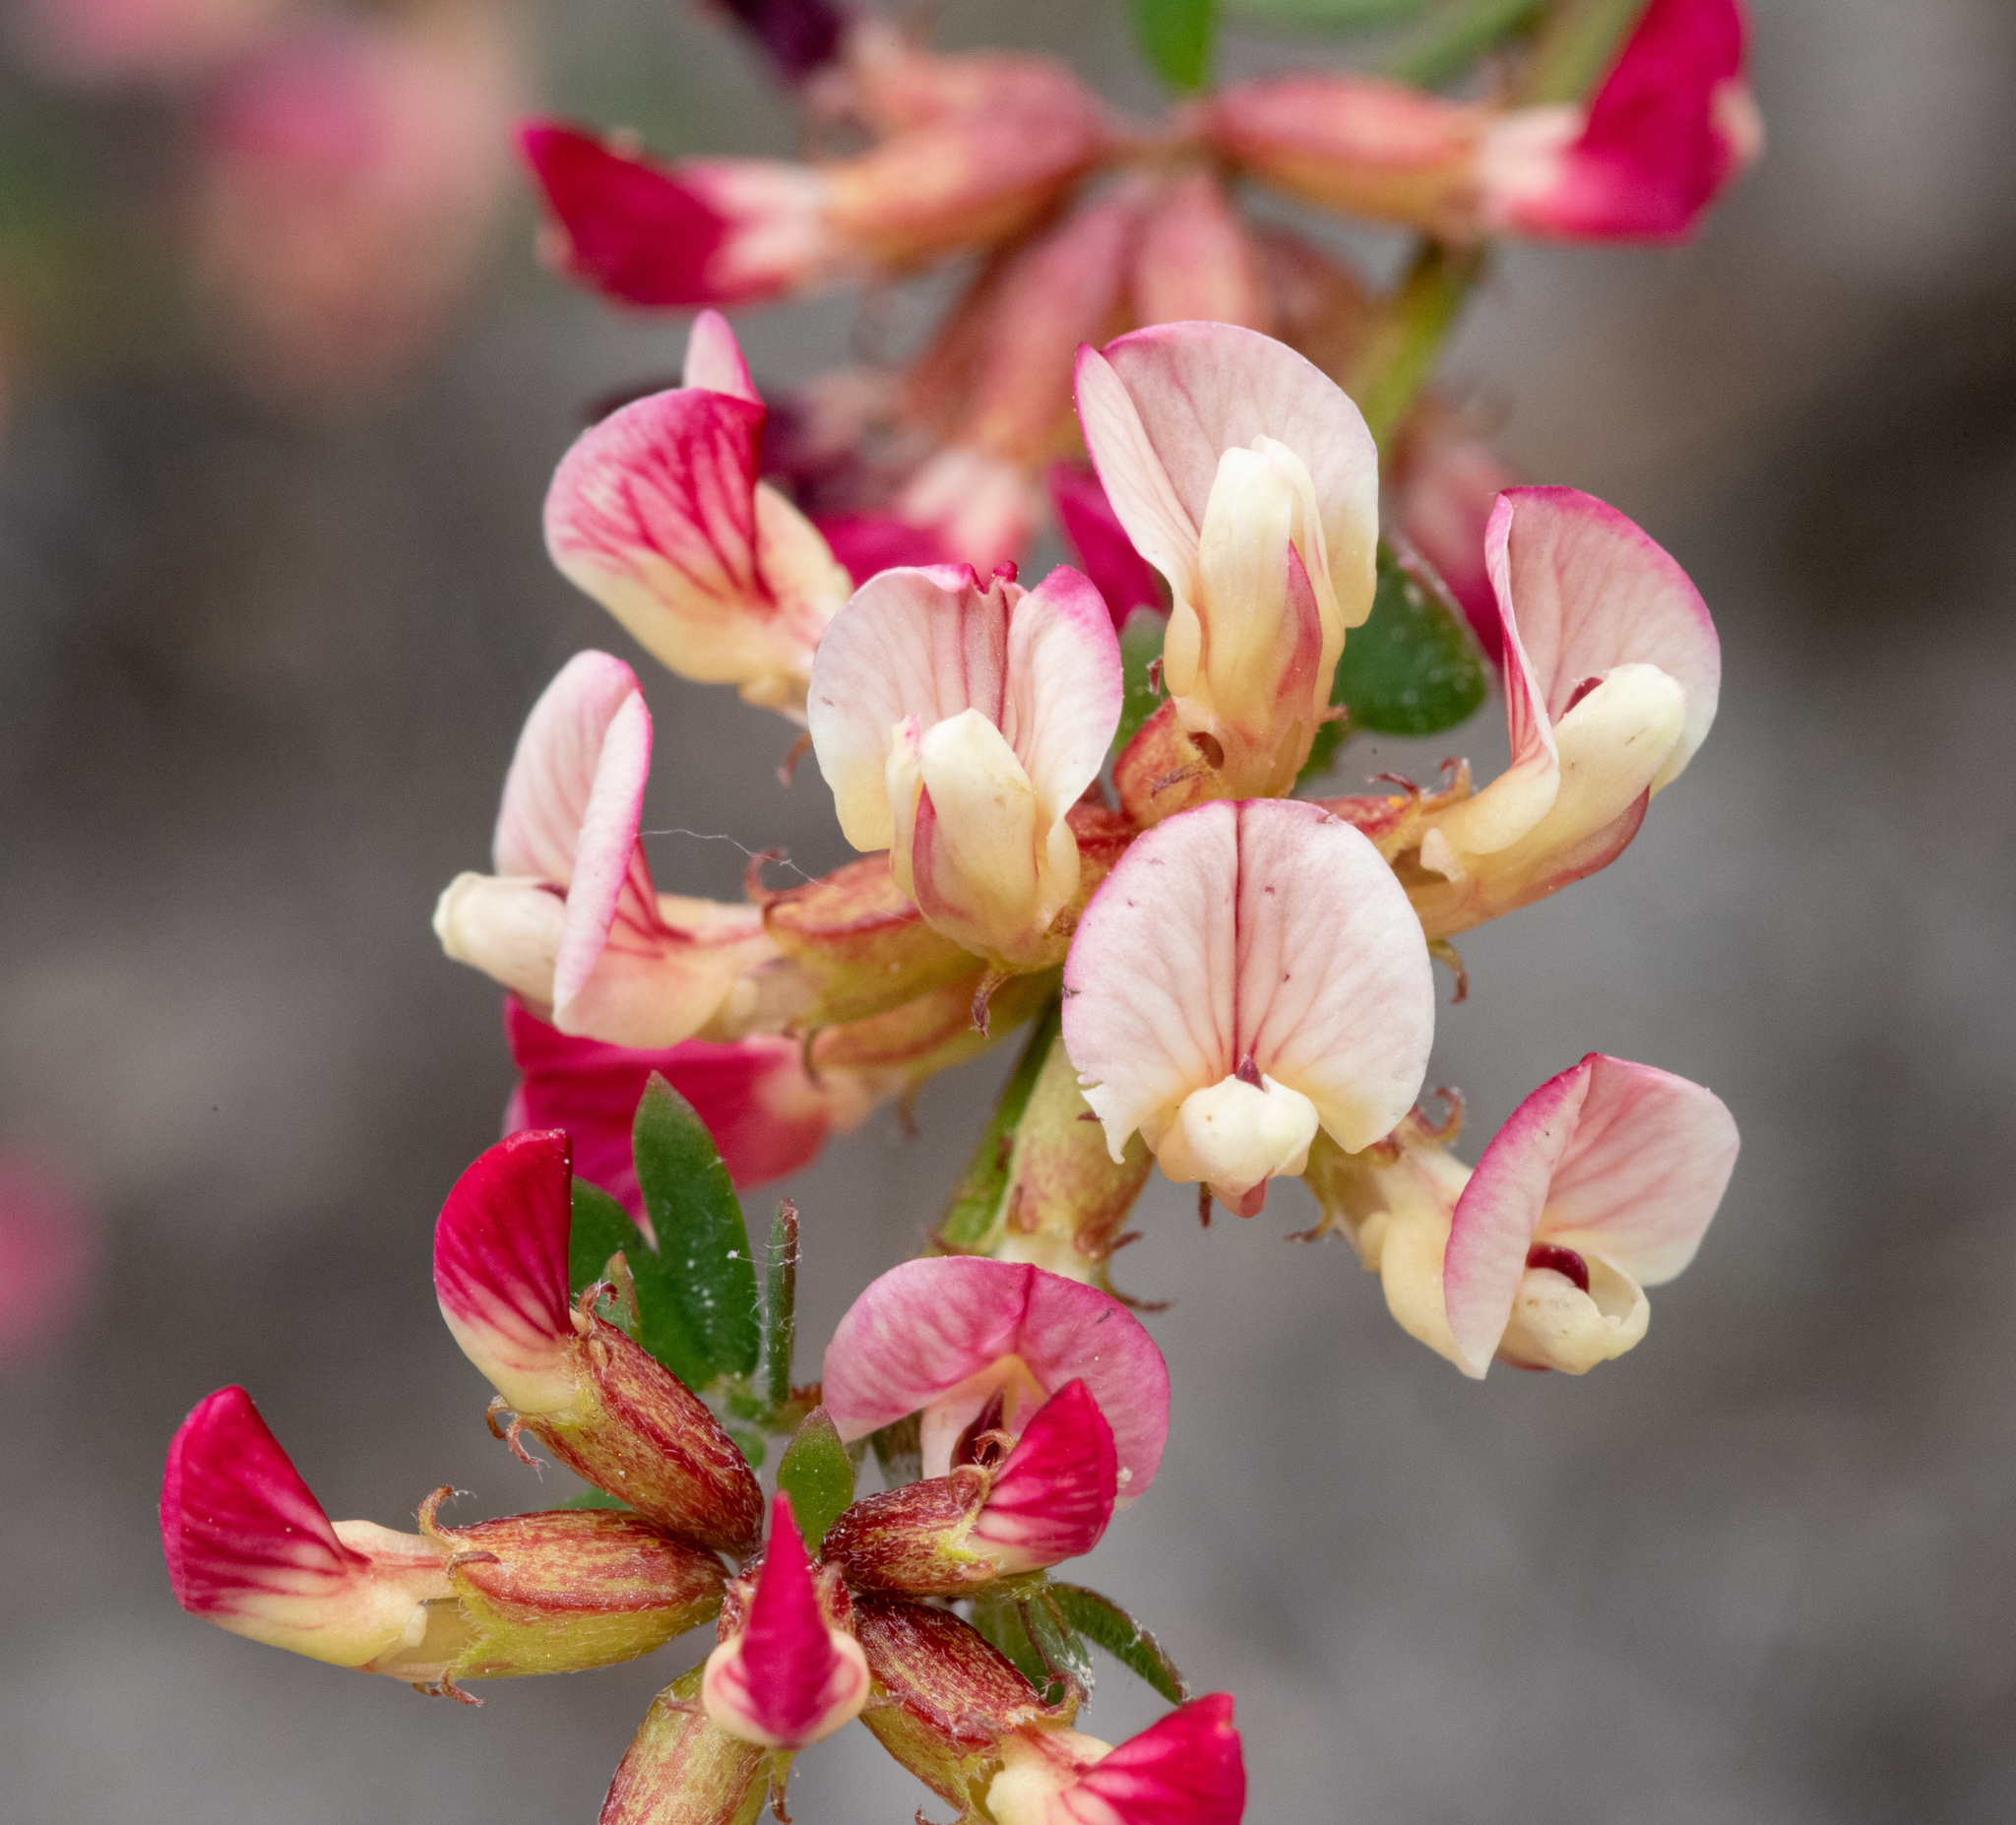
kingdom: Plantae
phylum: Tracheophyta
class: Magnoliopsida
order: Fabales
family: Fabaceae
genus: Acmispon
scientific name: Acmispon cytisoides
